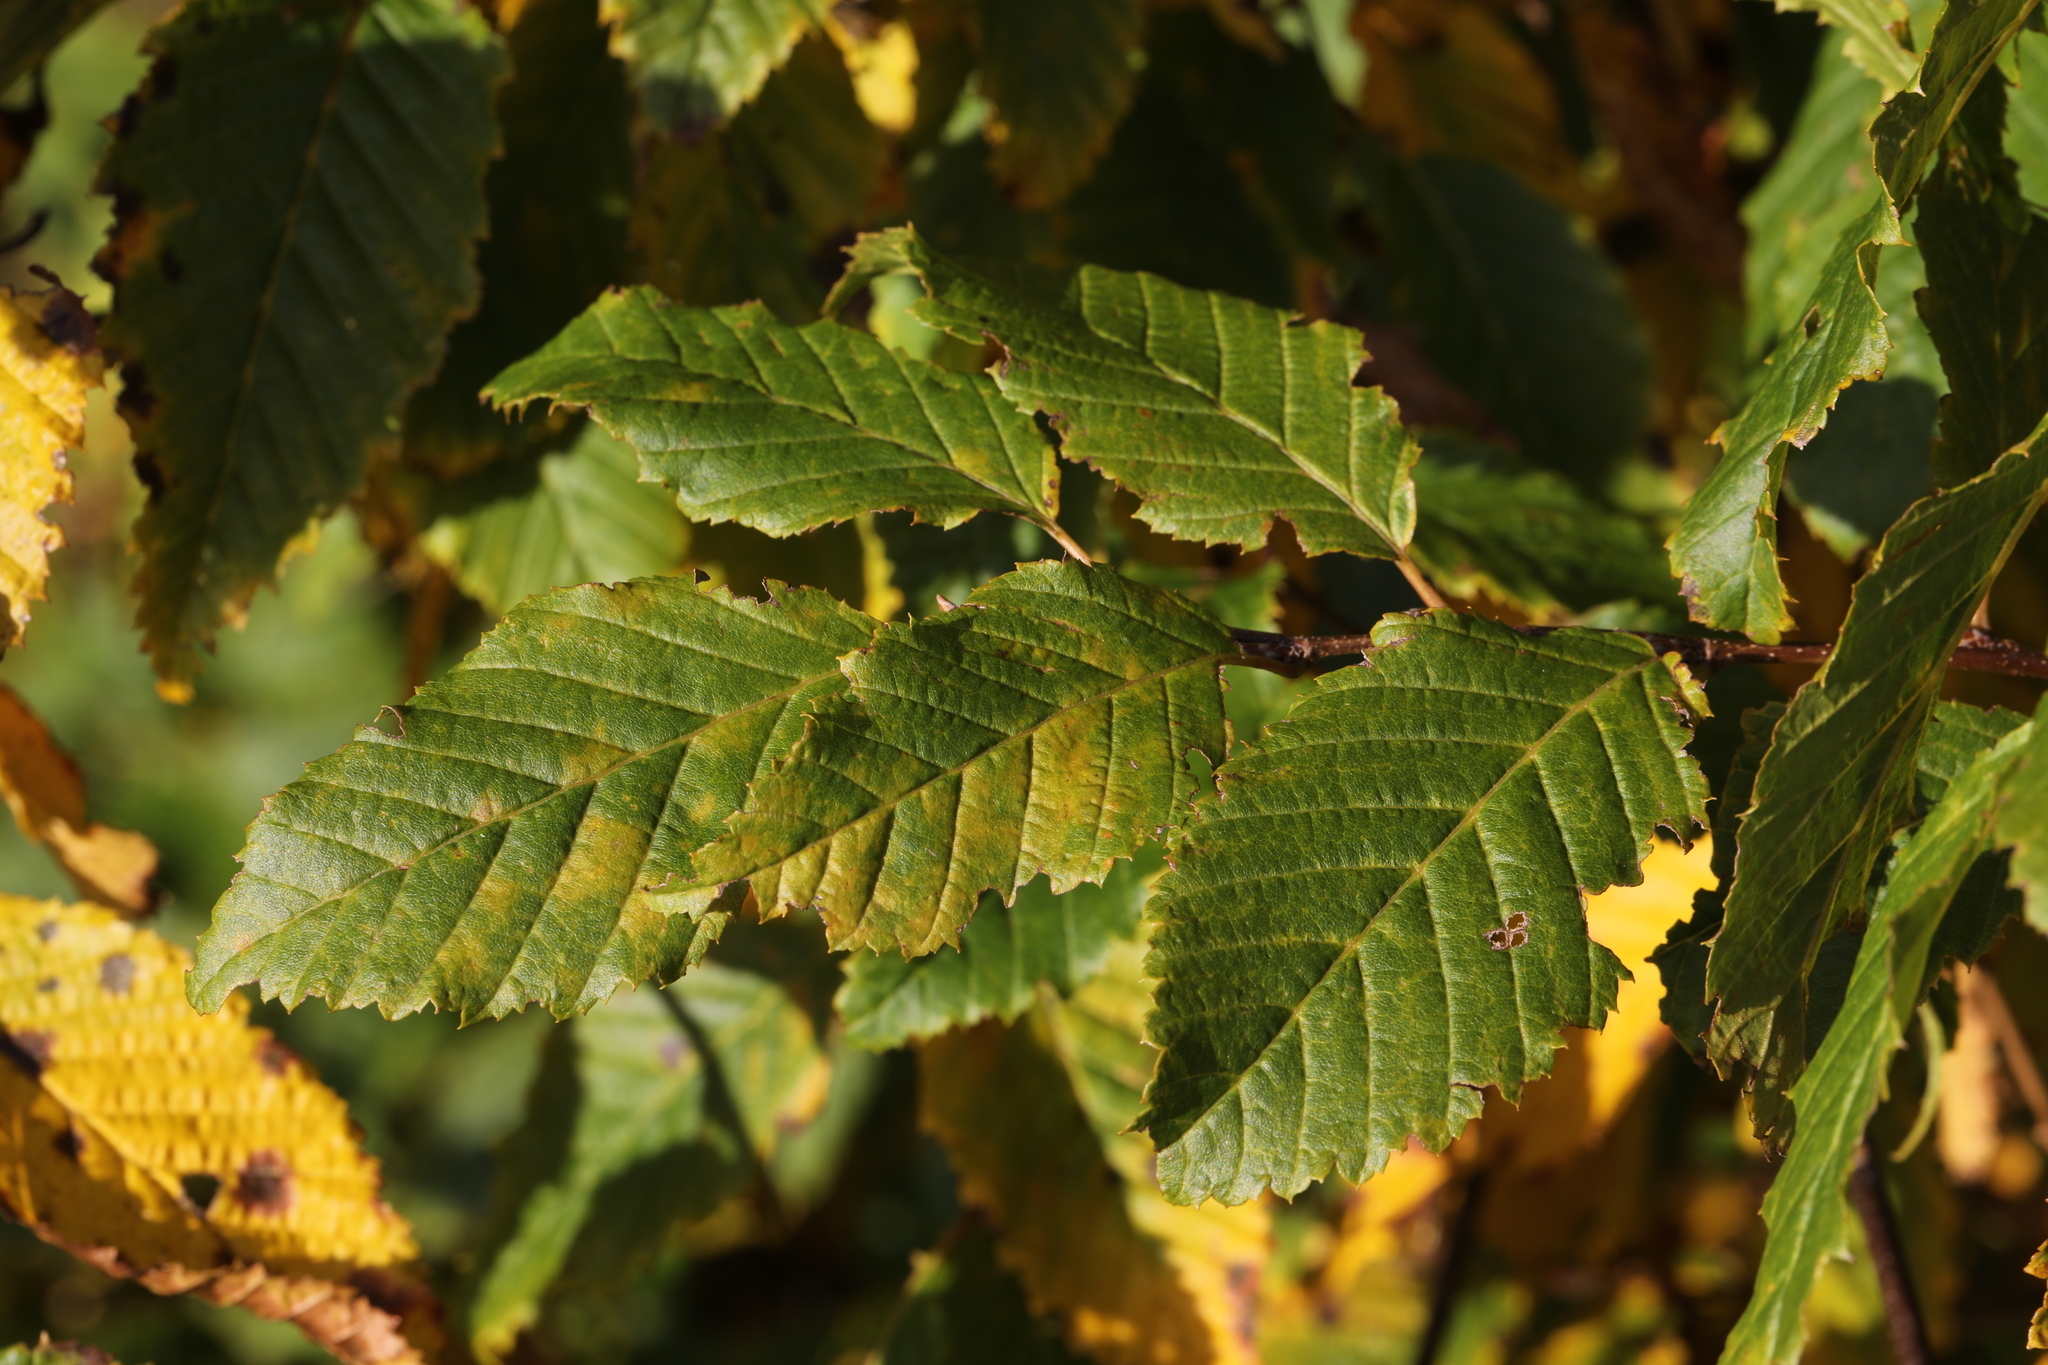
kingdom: Plantae
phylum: Tracheophyta
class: Magnoliopsida
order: Fagales
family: Betulaceae
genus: Carpinus
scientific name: Carpinus betulus
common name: Hornbeam
